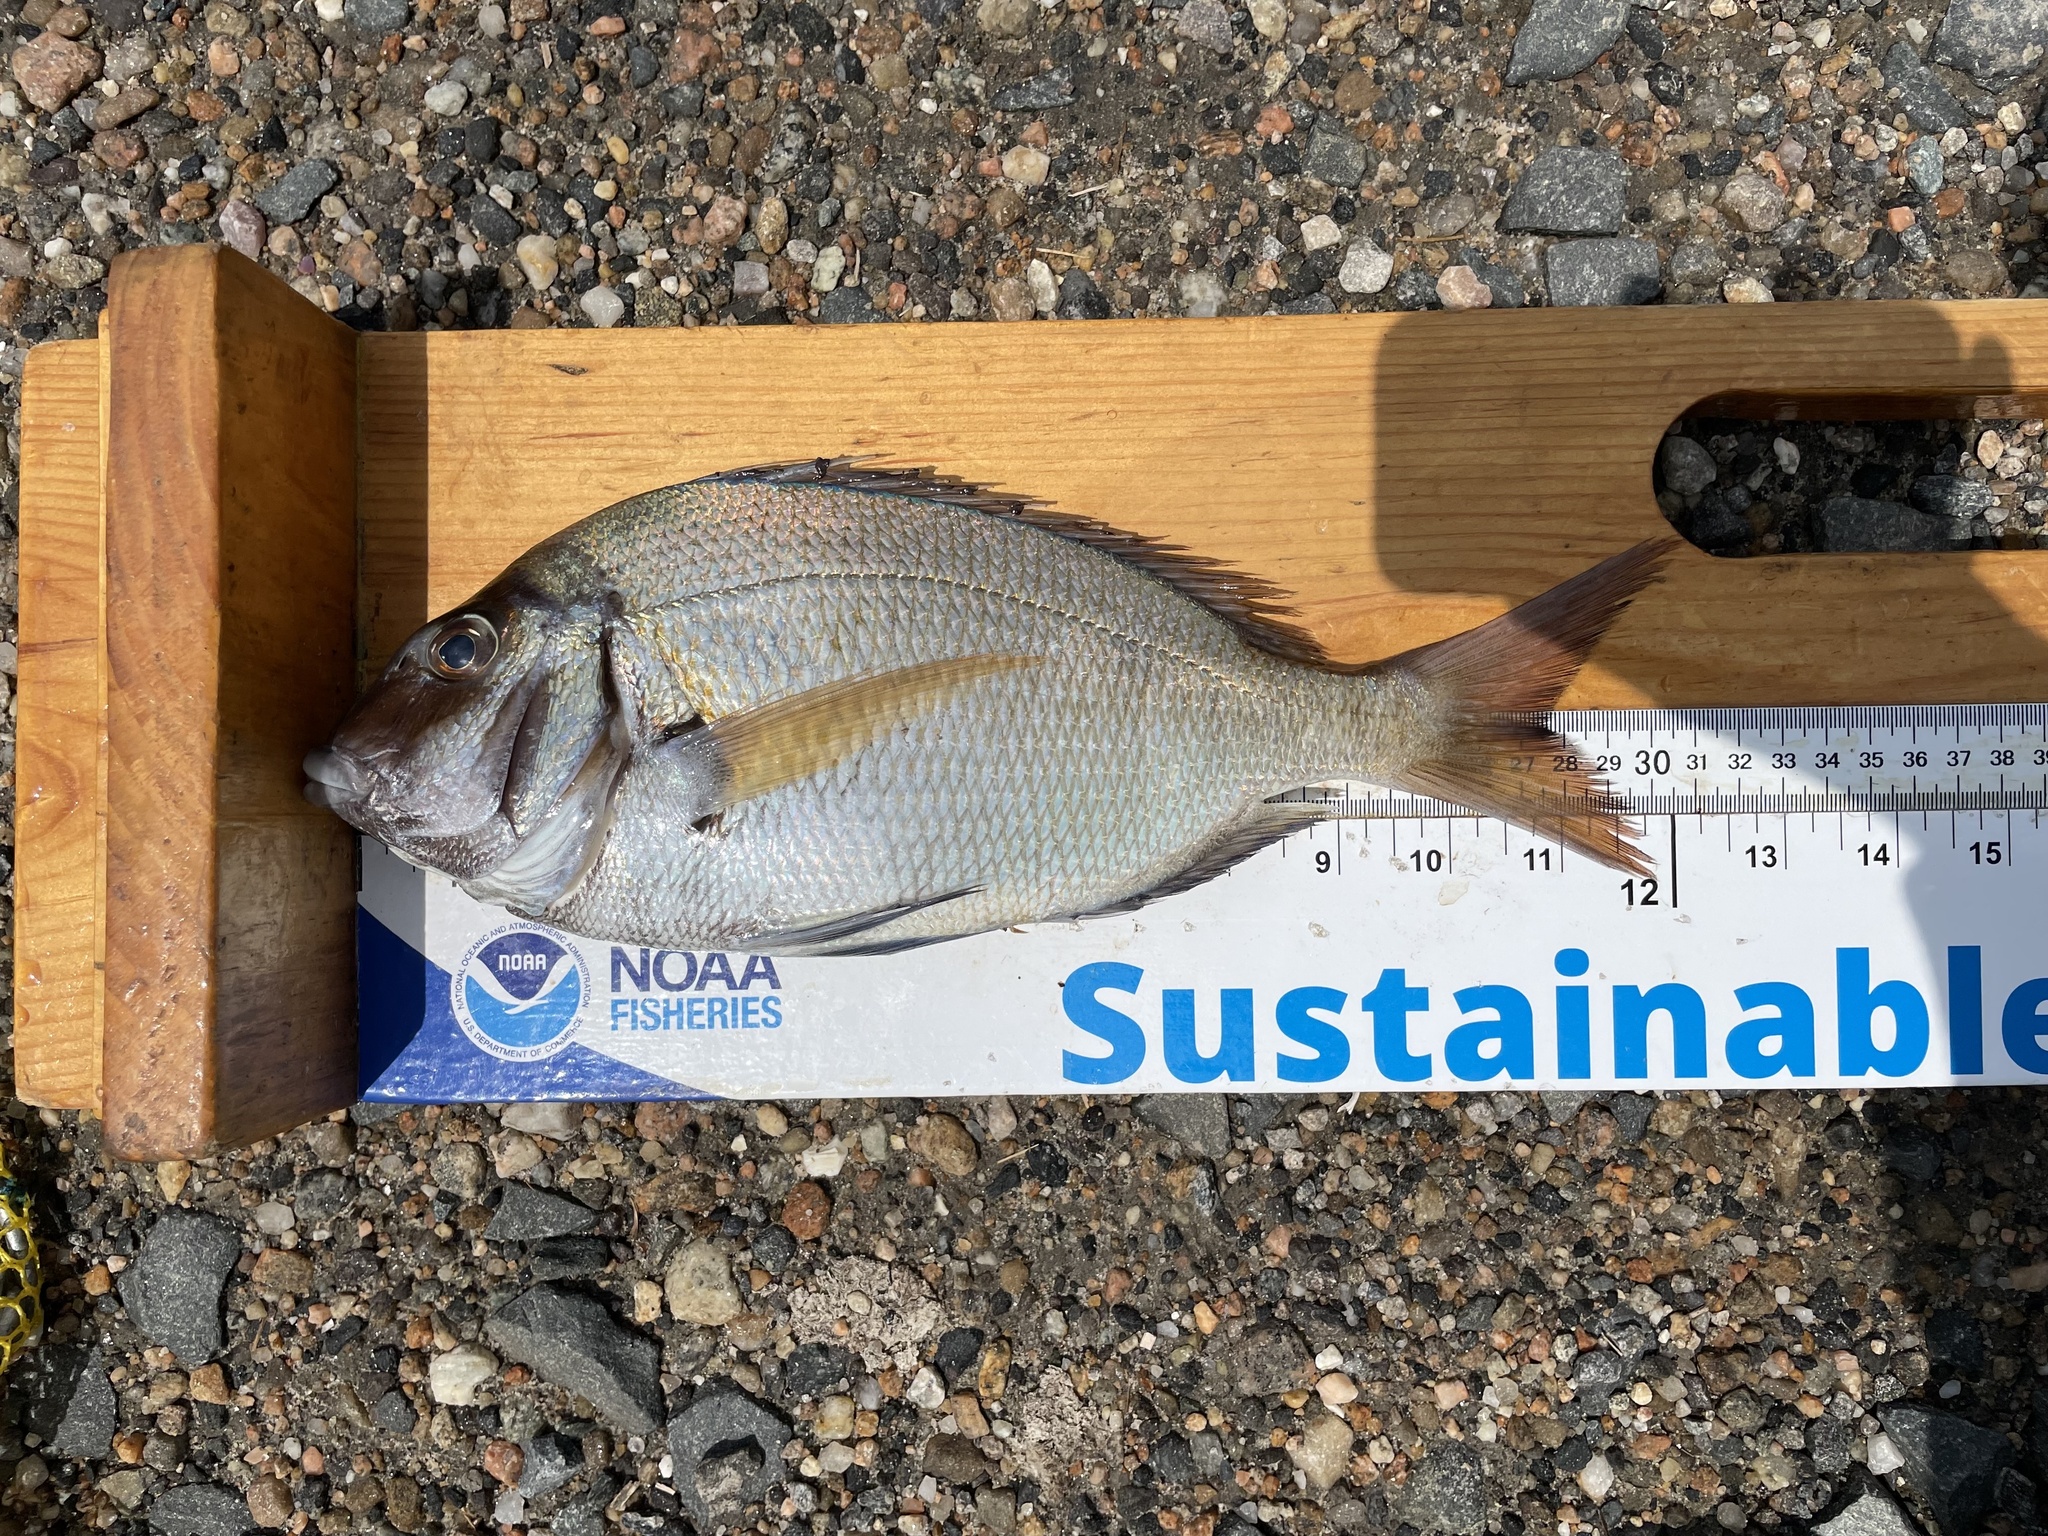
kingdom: Animalia
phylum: Chordata
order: Perciformes
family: Sparidae
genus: Stenotomus
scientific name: Stenotomus chrysops
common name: Scup
